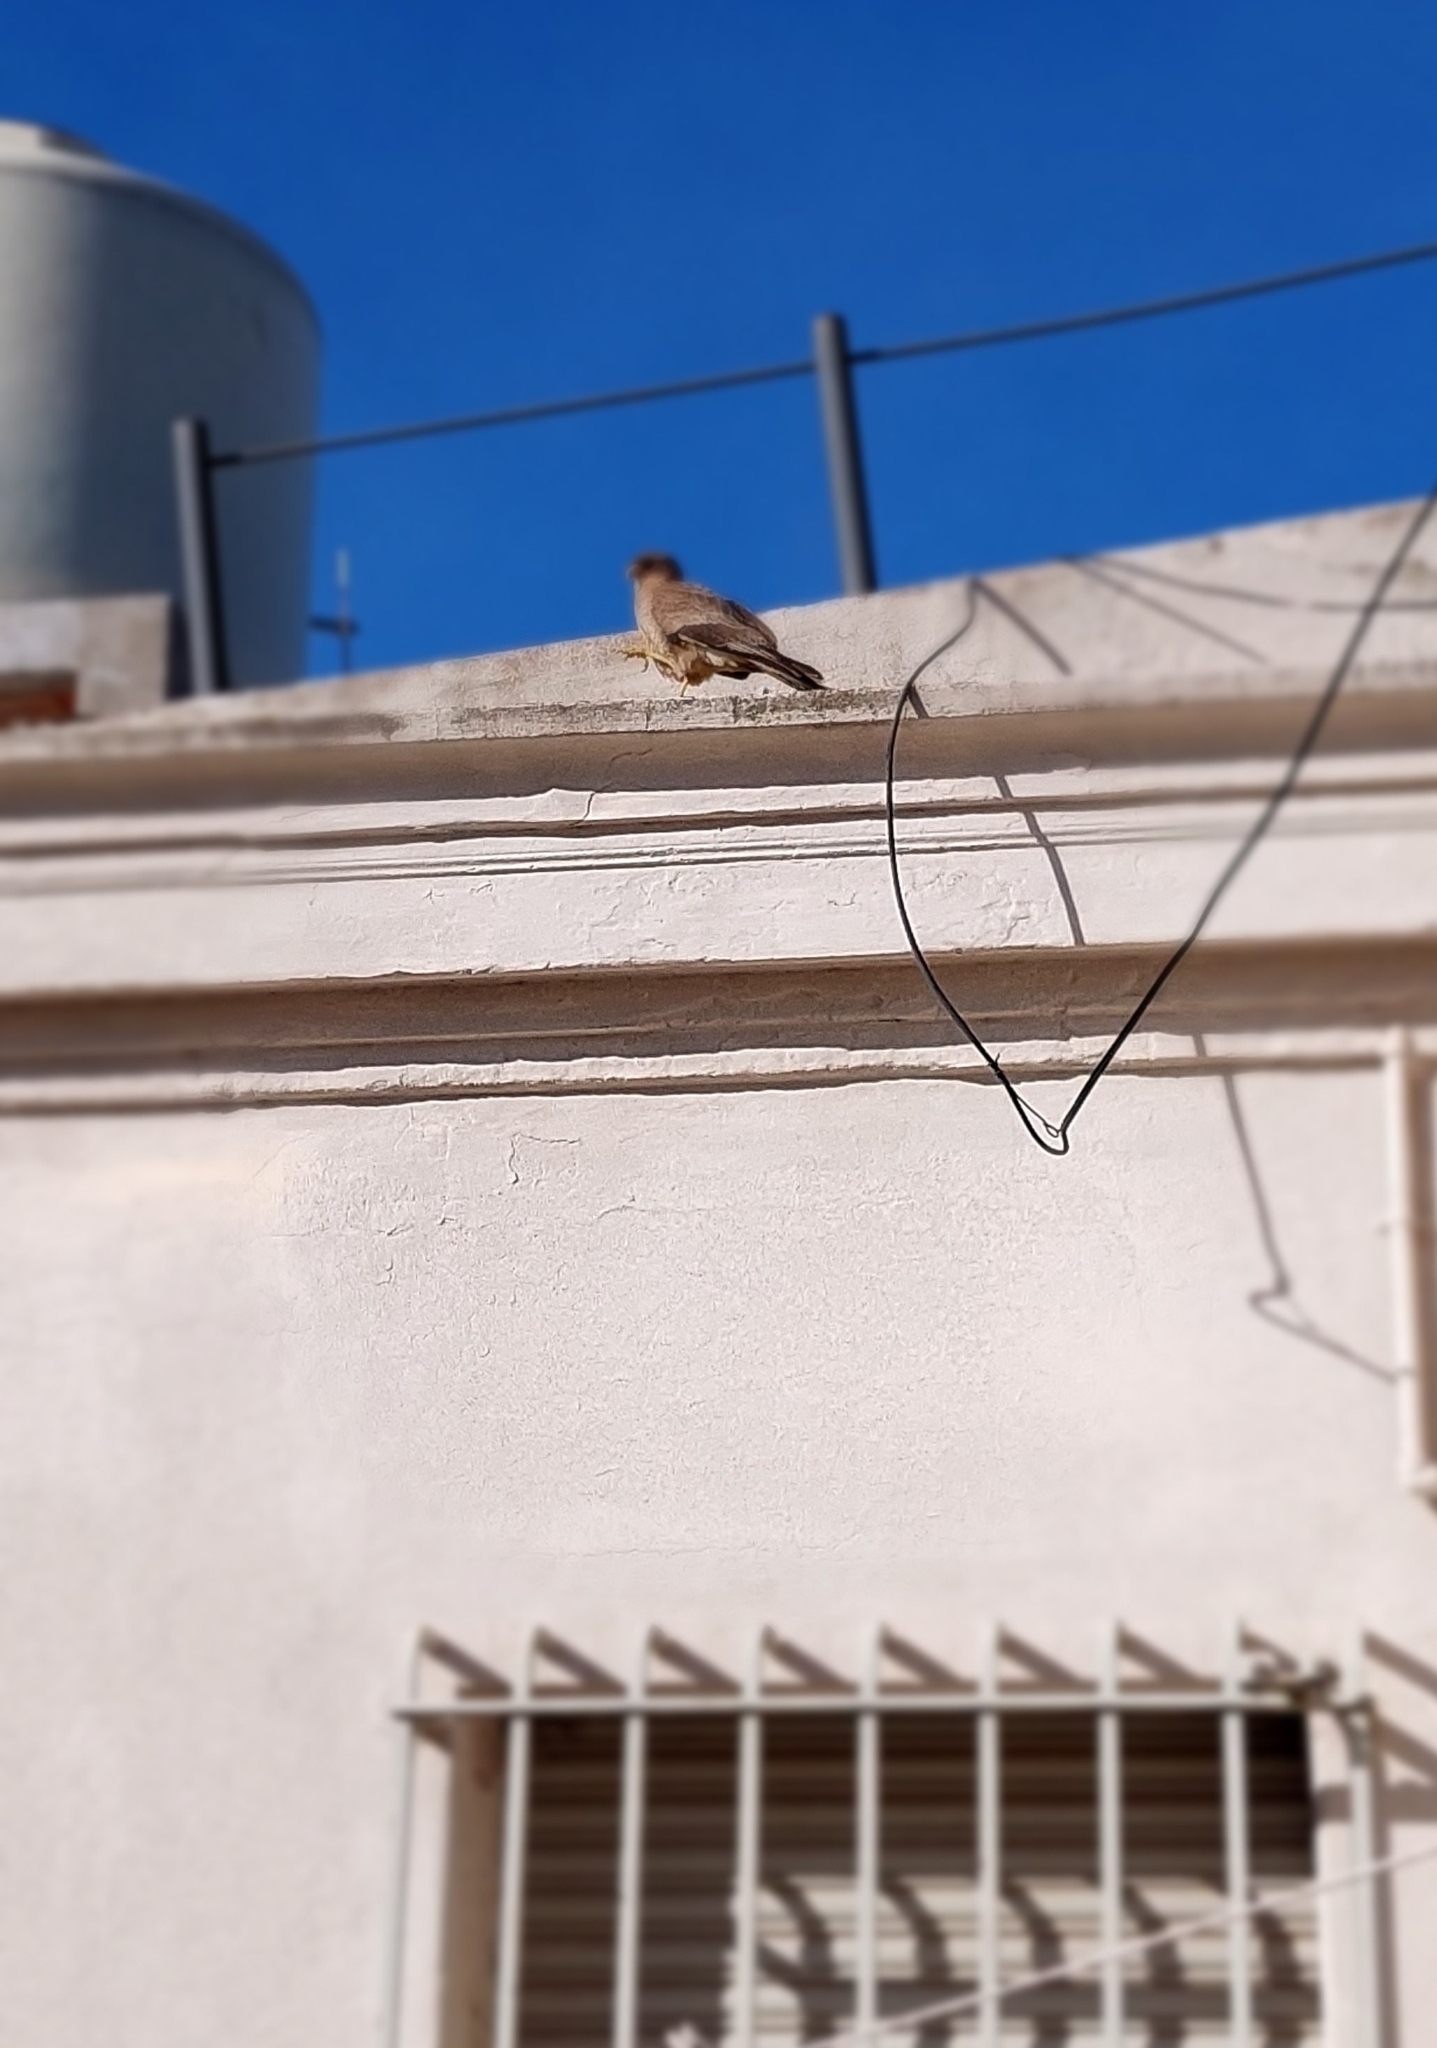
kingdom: Animalia
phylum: Chordata
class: Aves
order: Falconiformes
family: Falconidae
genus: Daptrius
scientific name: Daptrius
